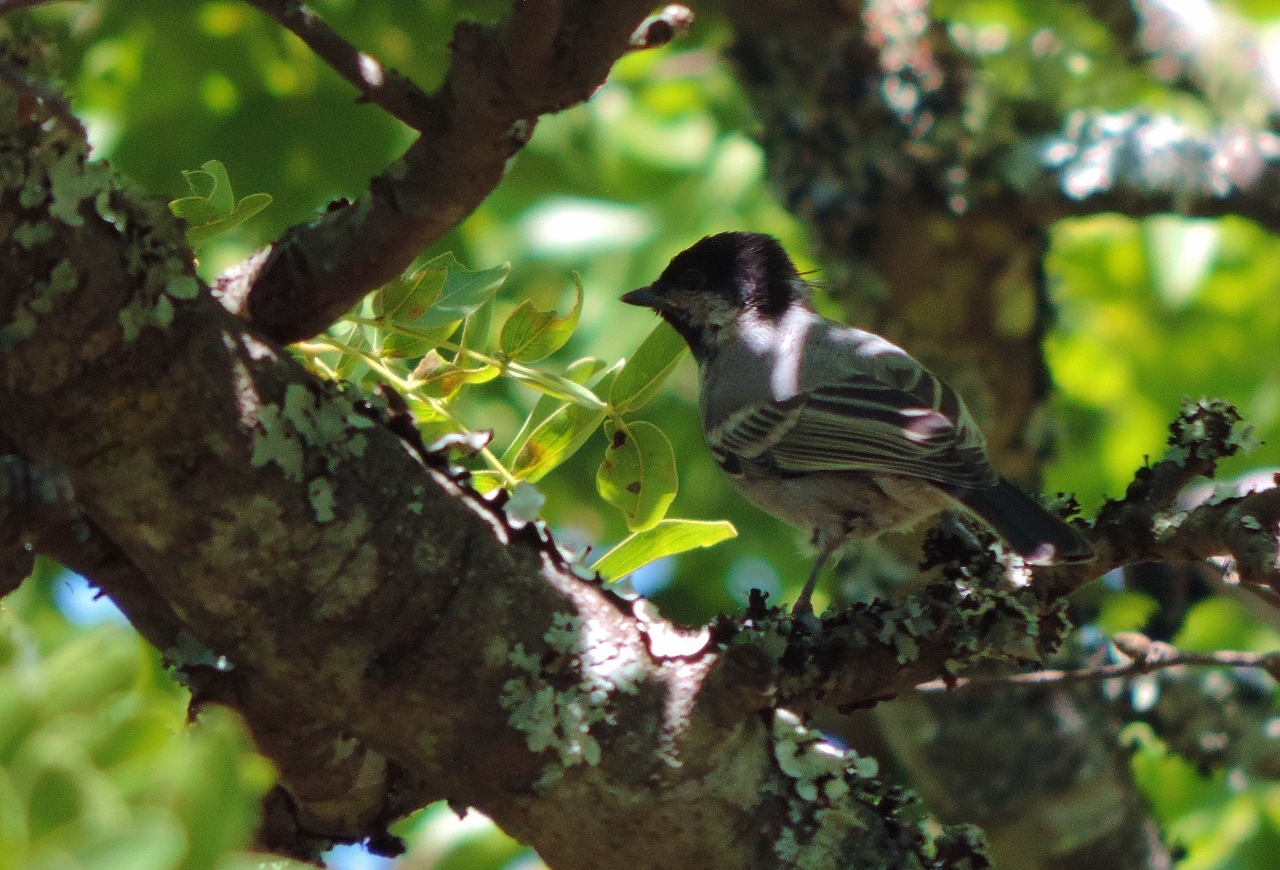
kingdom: Animalia
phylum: Chordata
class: Aves
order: Passeriformes
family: Paridae
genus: Parus
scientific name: Parus griseiventris
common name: Miombo tit
